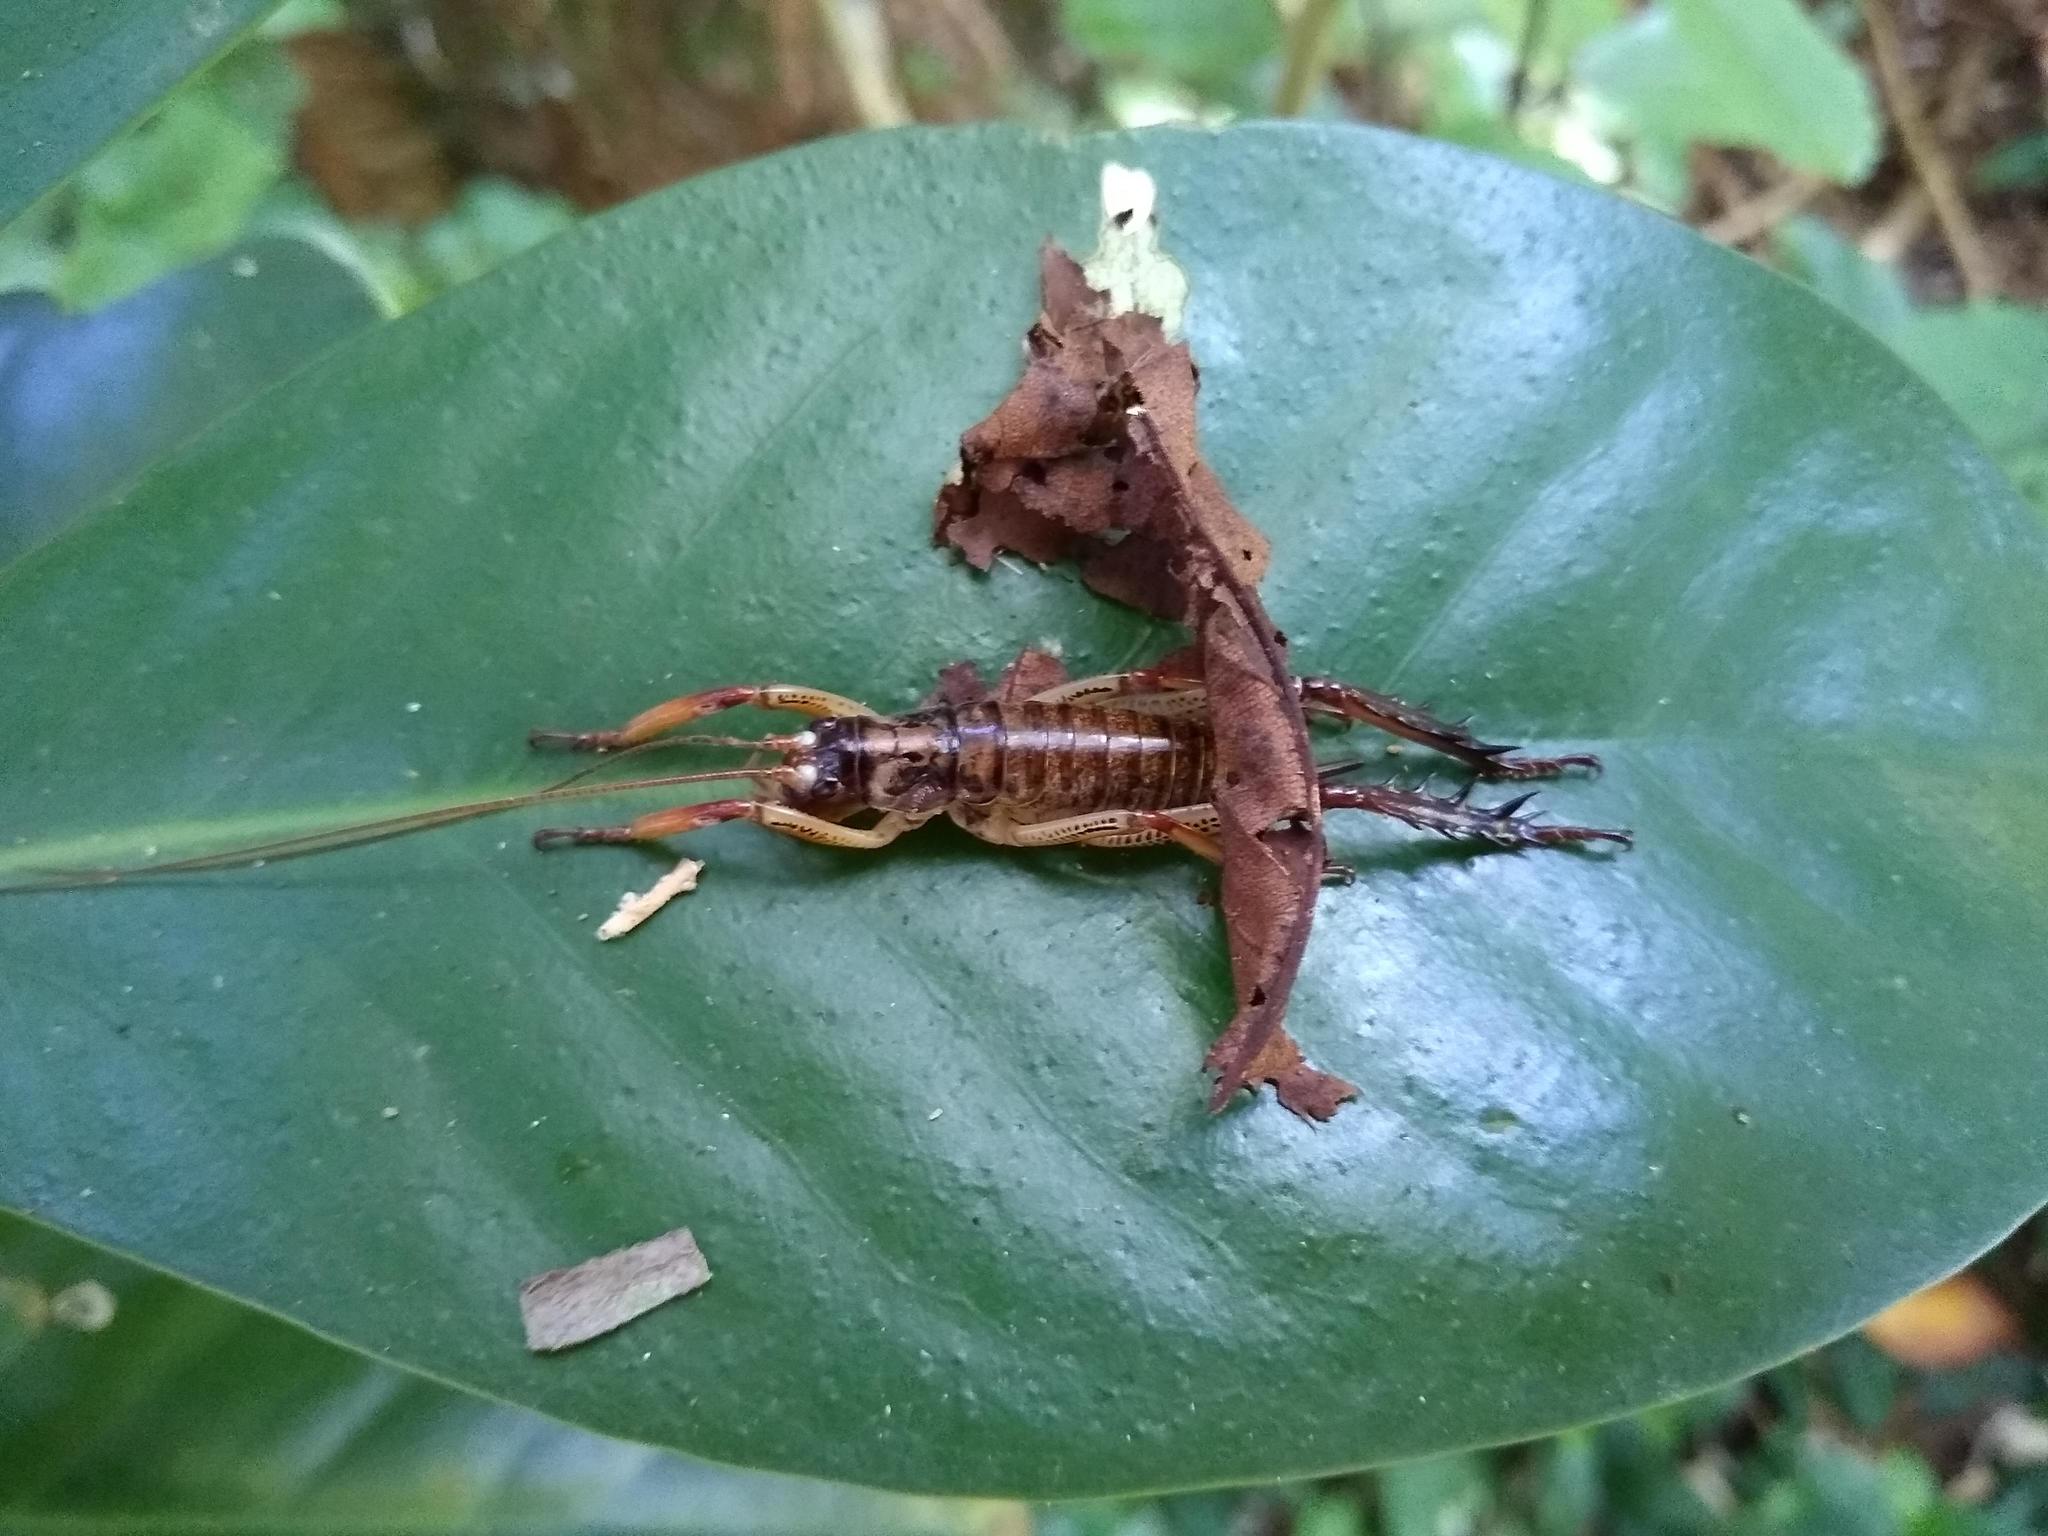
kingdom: Animalia
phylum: Arthropoda
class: Insecta
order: Orthoptera
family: Anostostomatidae
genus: Hemideina
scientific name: Hemideina thoracica
